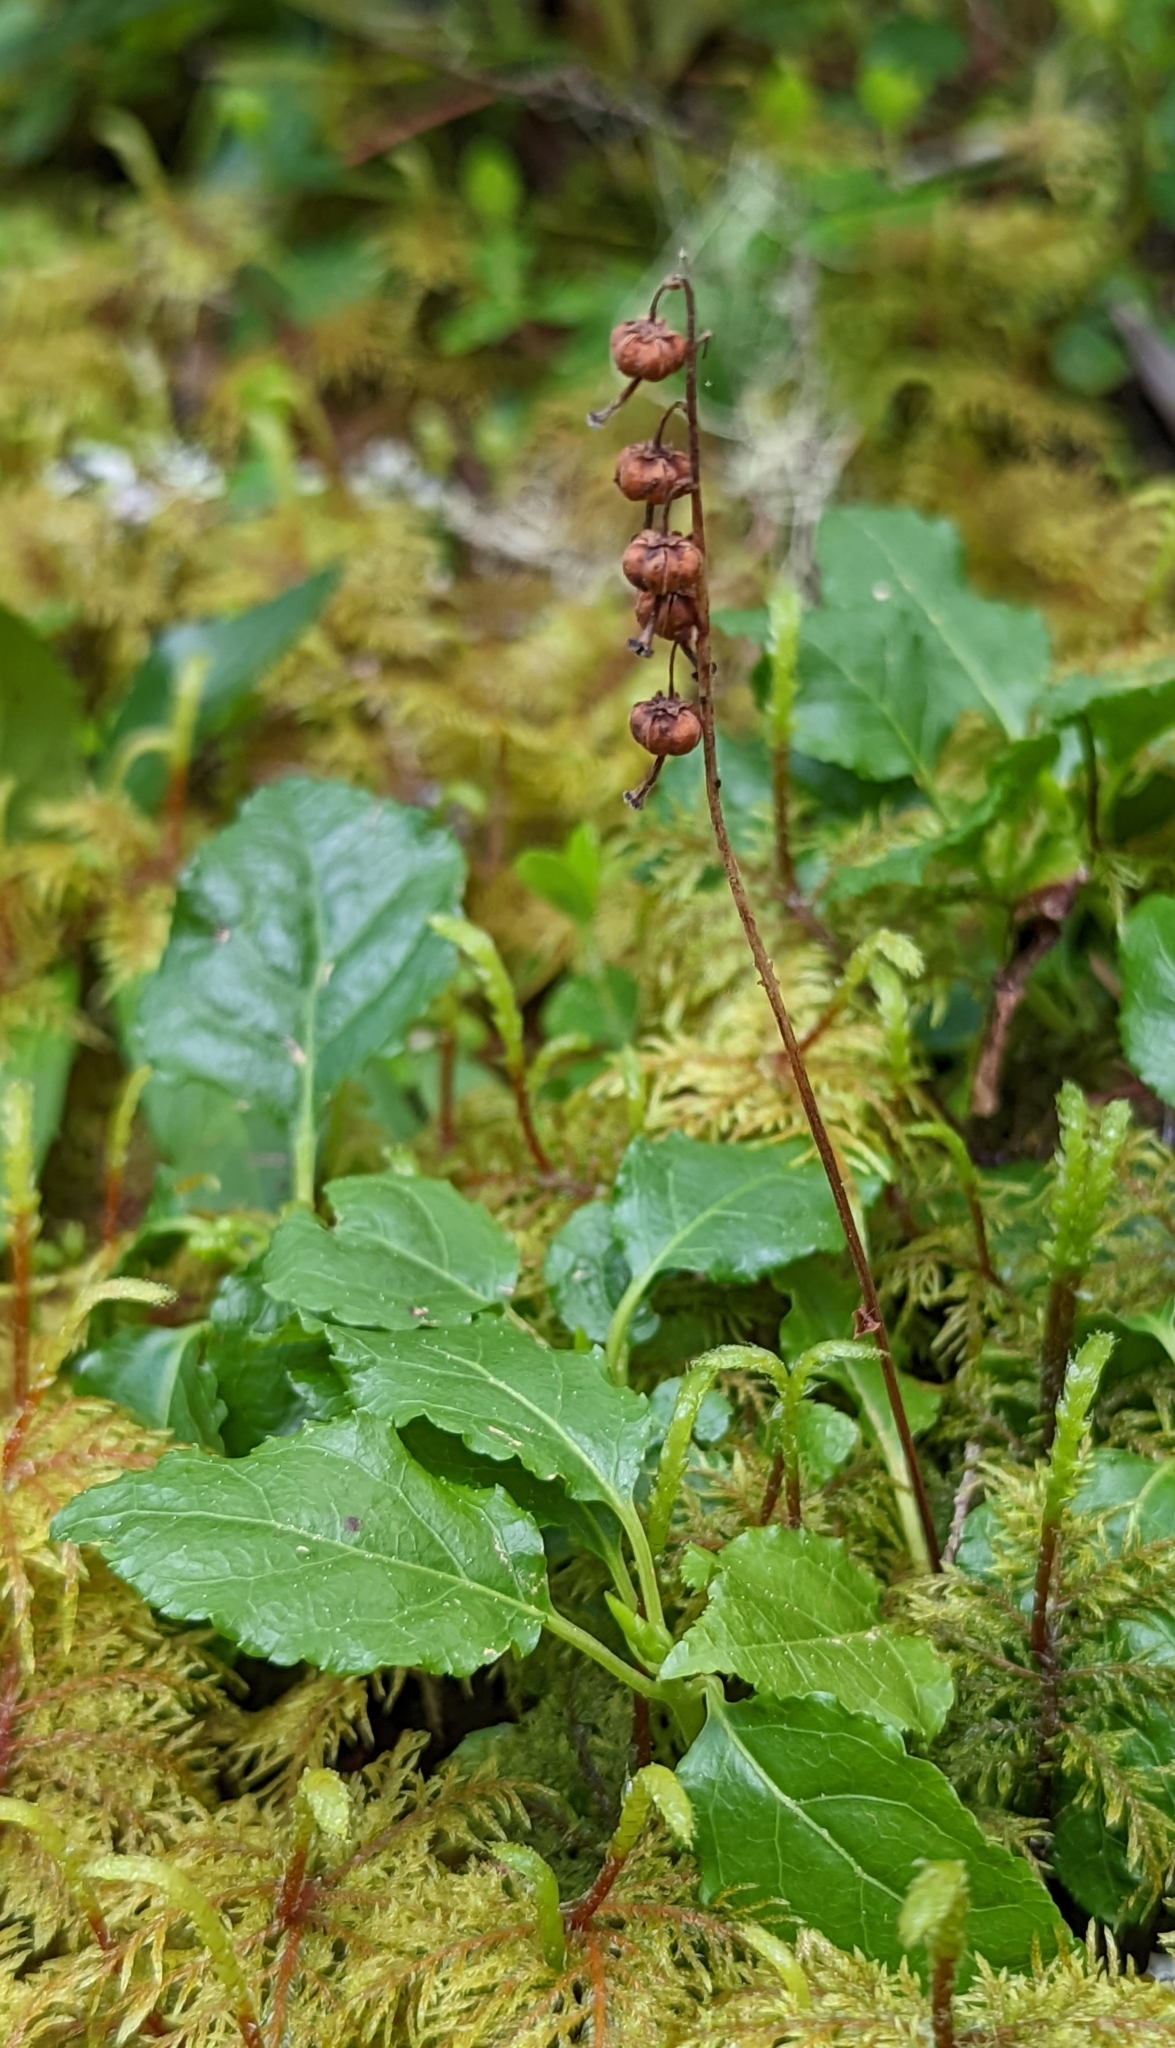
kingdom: Plantae
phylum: Tracheophyta
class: Magnoliopsida
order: Ericales
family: Ericaceae
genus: Orthilia
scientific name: Orthilia secunda
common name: One-sided orthilia
